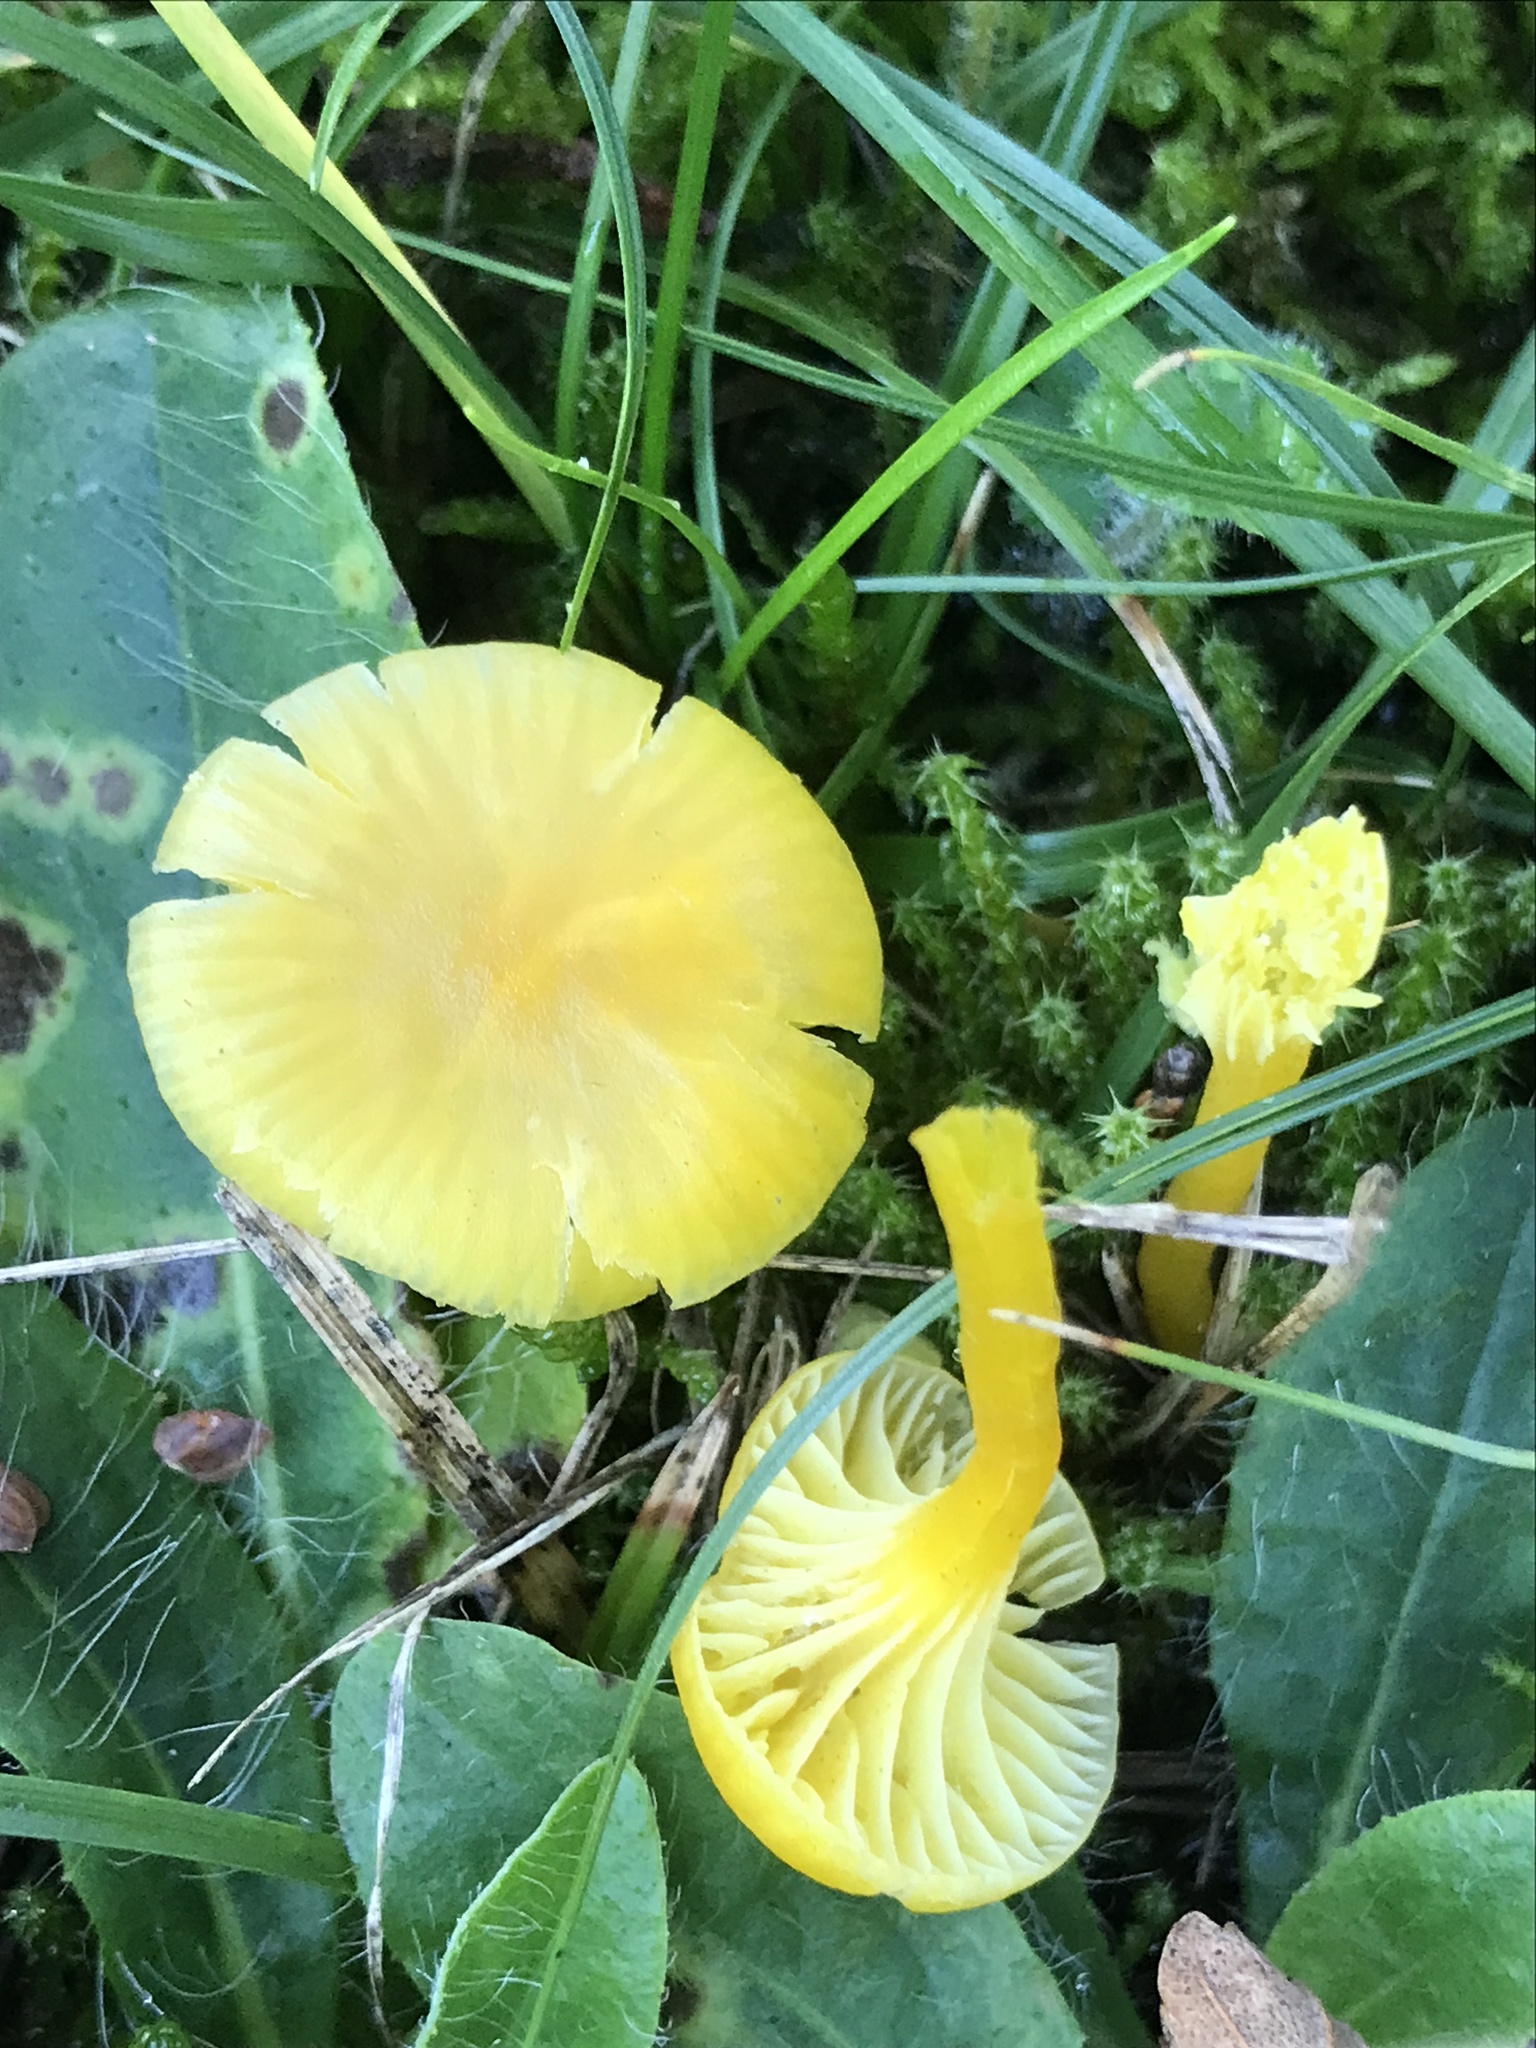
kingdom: Fungi
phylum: Basidiomycota
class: Agaricomycetes
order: Agaricales
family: Hygrophoraceae
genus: Hygrocybe
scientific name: Hygrocybe ceracea
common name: Butter waxcap
